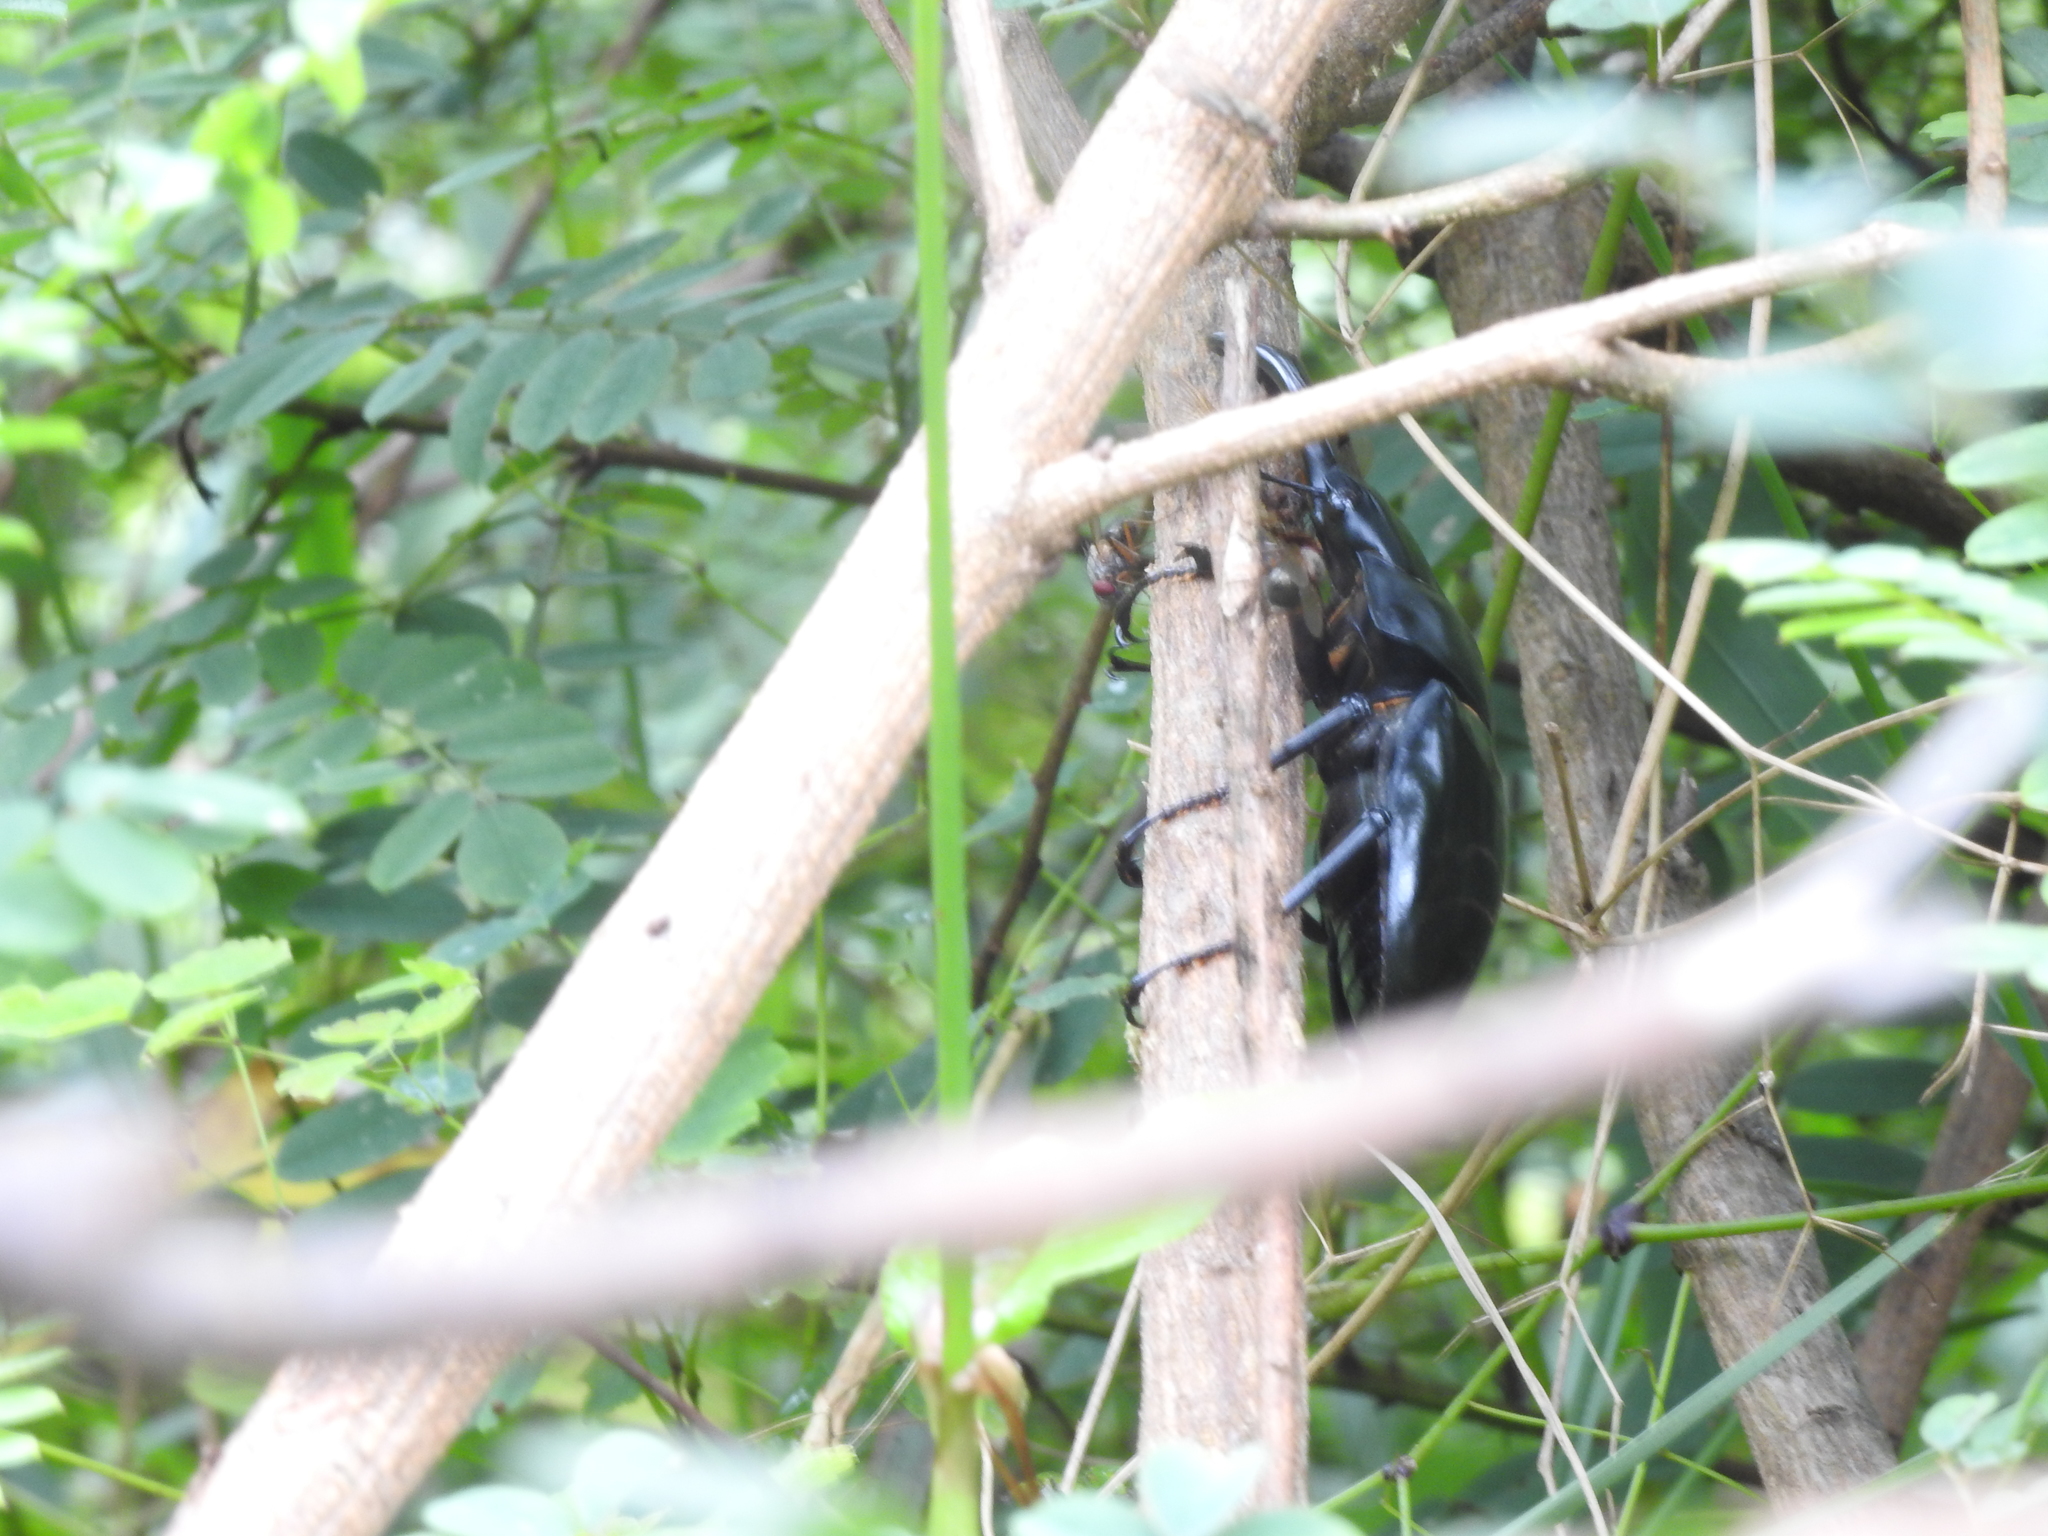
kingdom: Animalia
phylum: Arthropoda
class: Insecta
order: Coleoptera
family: Lucanidae
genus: Dorcus
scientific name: Dorcus nepalensis
